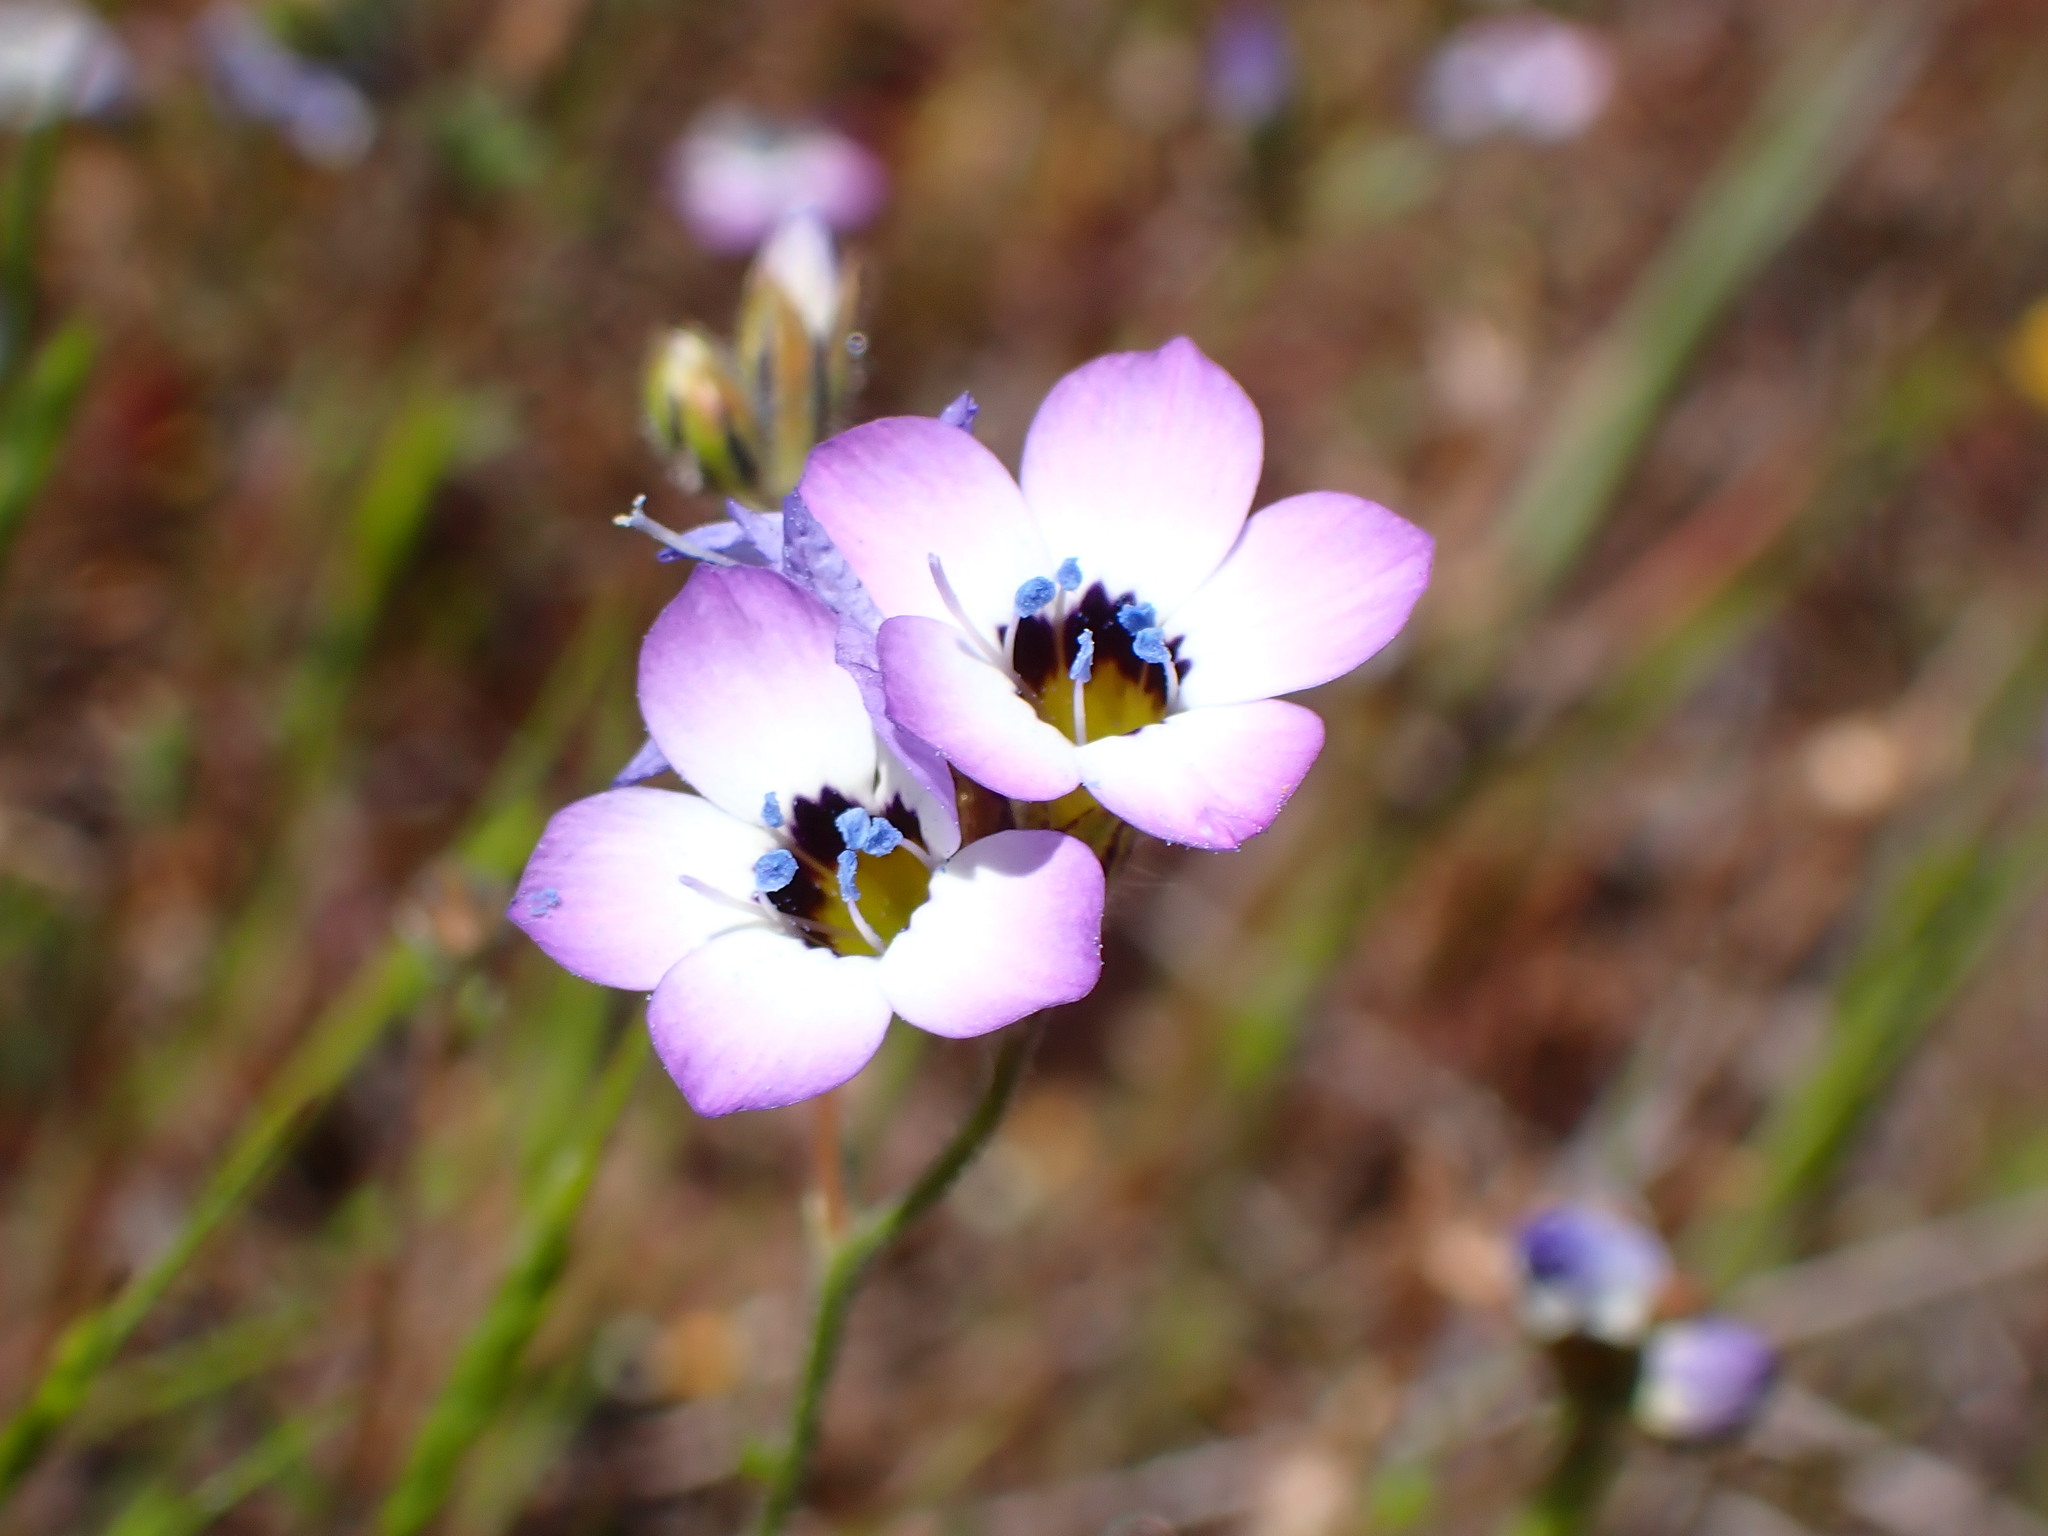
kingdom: Plantae
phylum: Tracheophyta
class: Magnoliopsida
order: Ericales
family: Polemoniaceae
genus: Gilia
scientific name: Gilia tricolor
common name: Bird's-eyes
